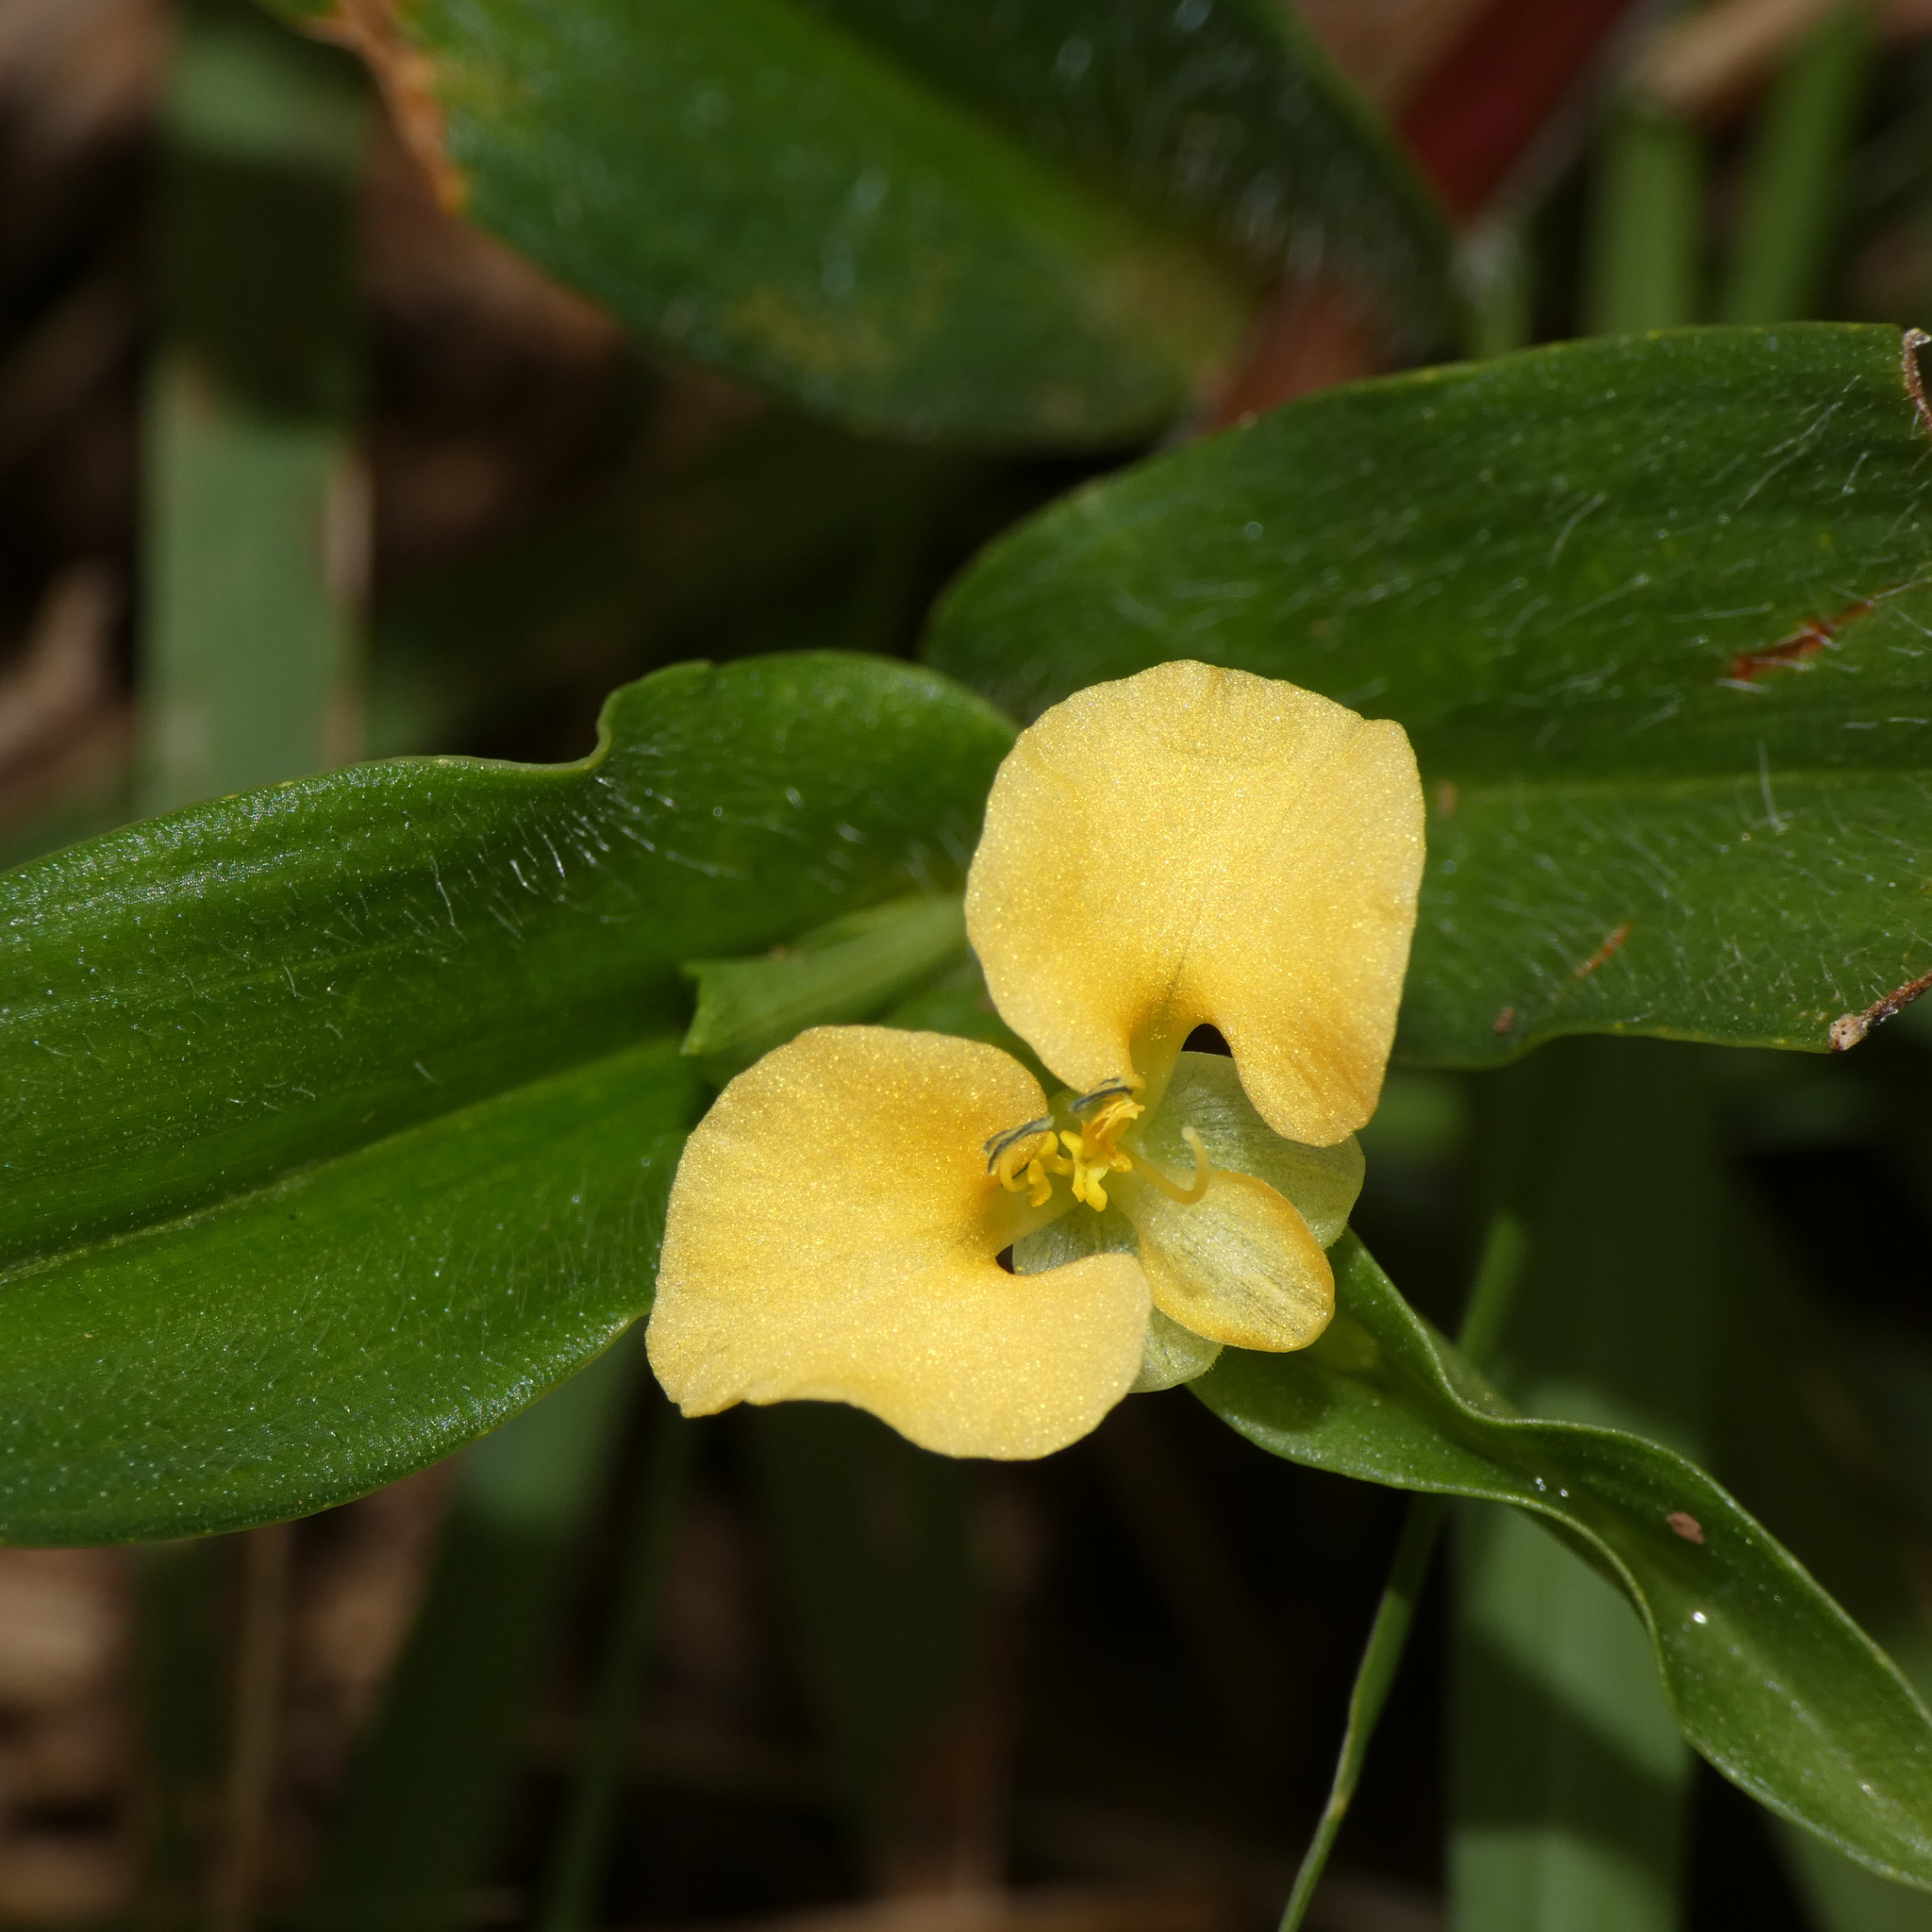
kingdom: Plantae
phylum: Tracheophyta
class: Liliopsida
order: Commelinales
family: Commelinaceae
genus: Commelina
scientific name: Commelina africana
